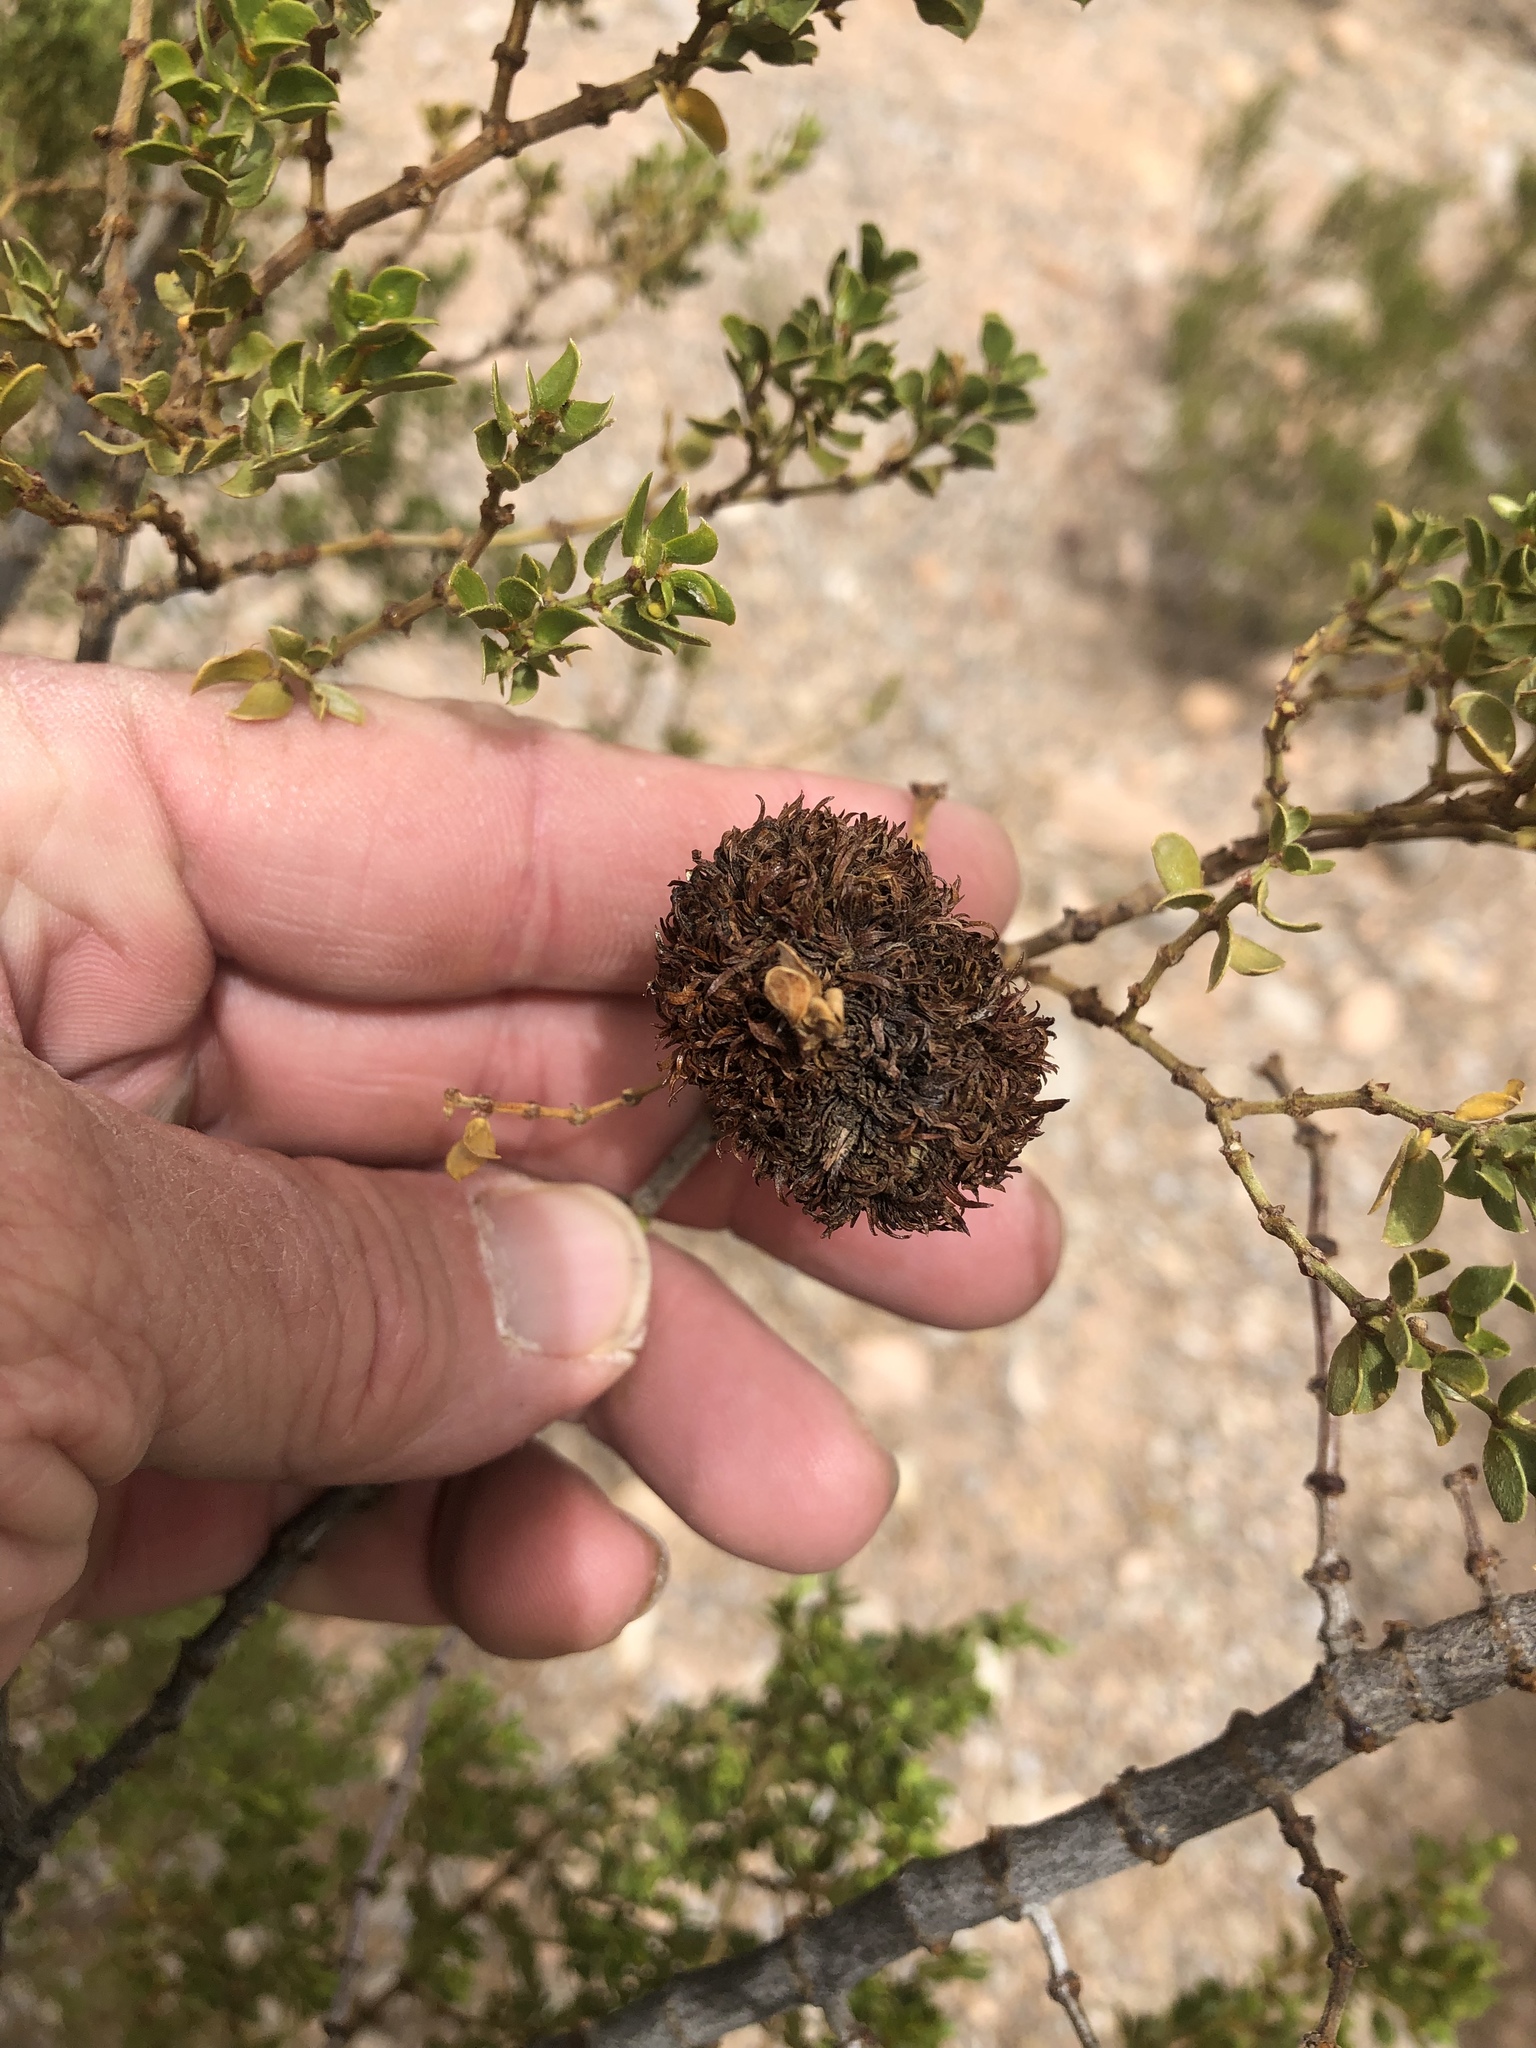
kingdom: Animalia
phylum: Arthropoda
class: Insecta
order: Diptera
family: Cecidomyiidae
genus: Asphondylia
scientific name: Asphondylia auripila
